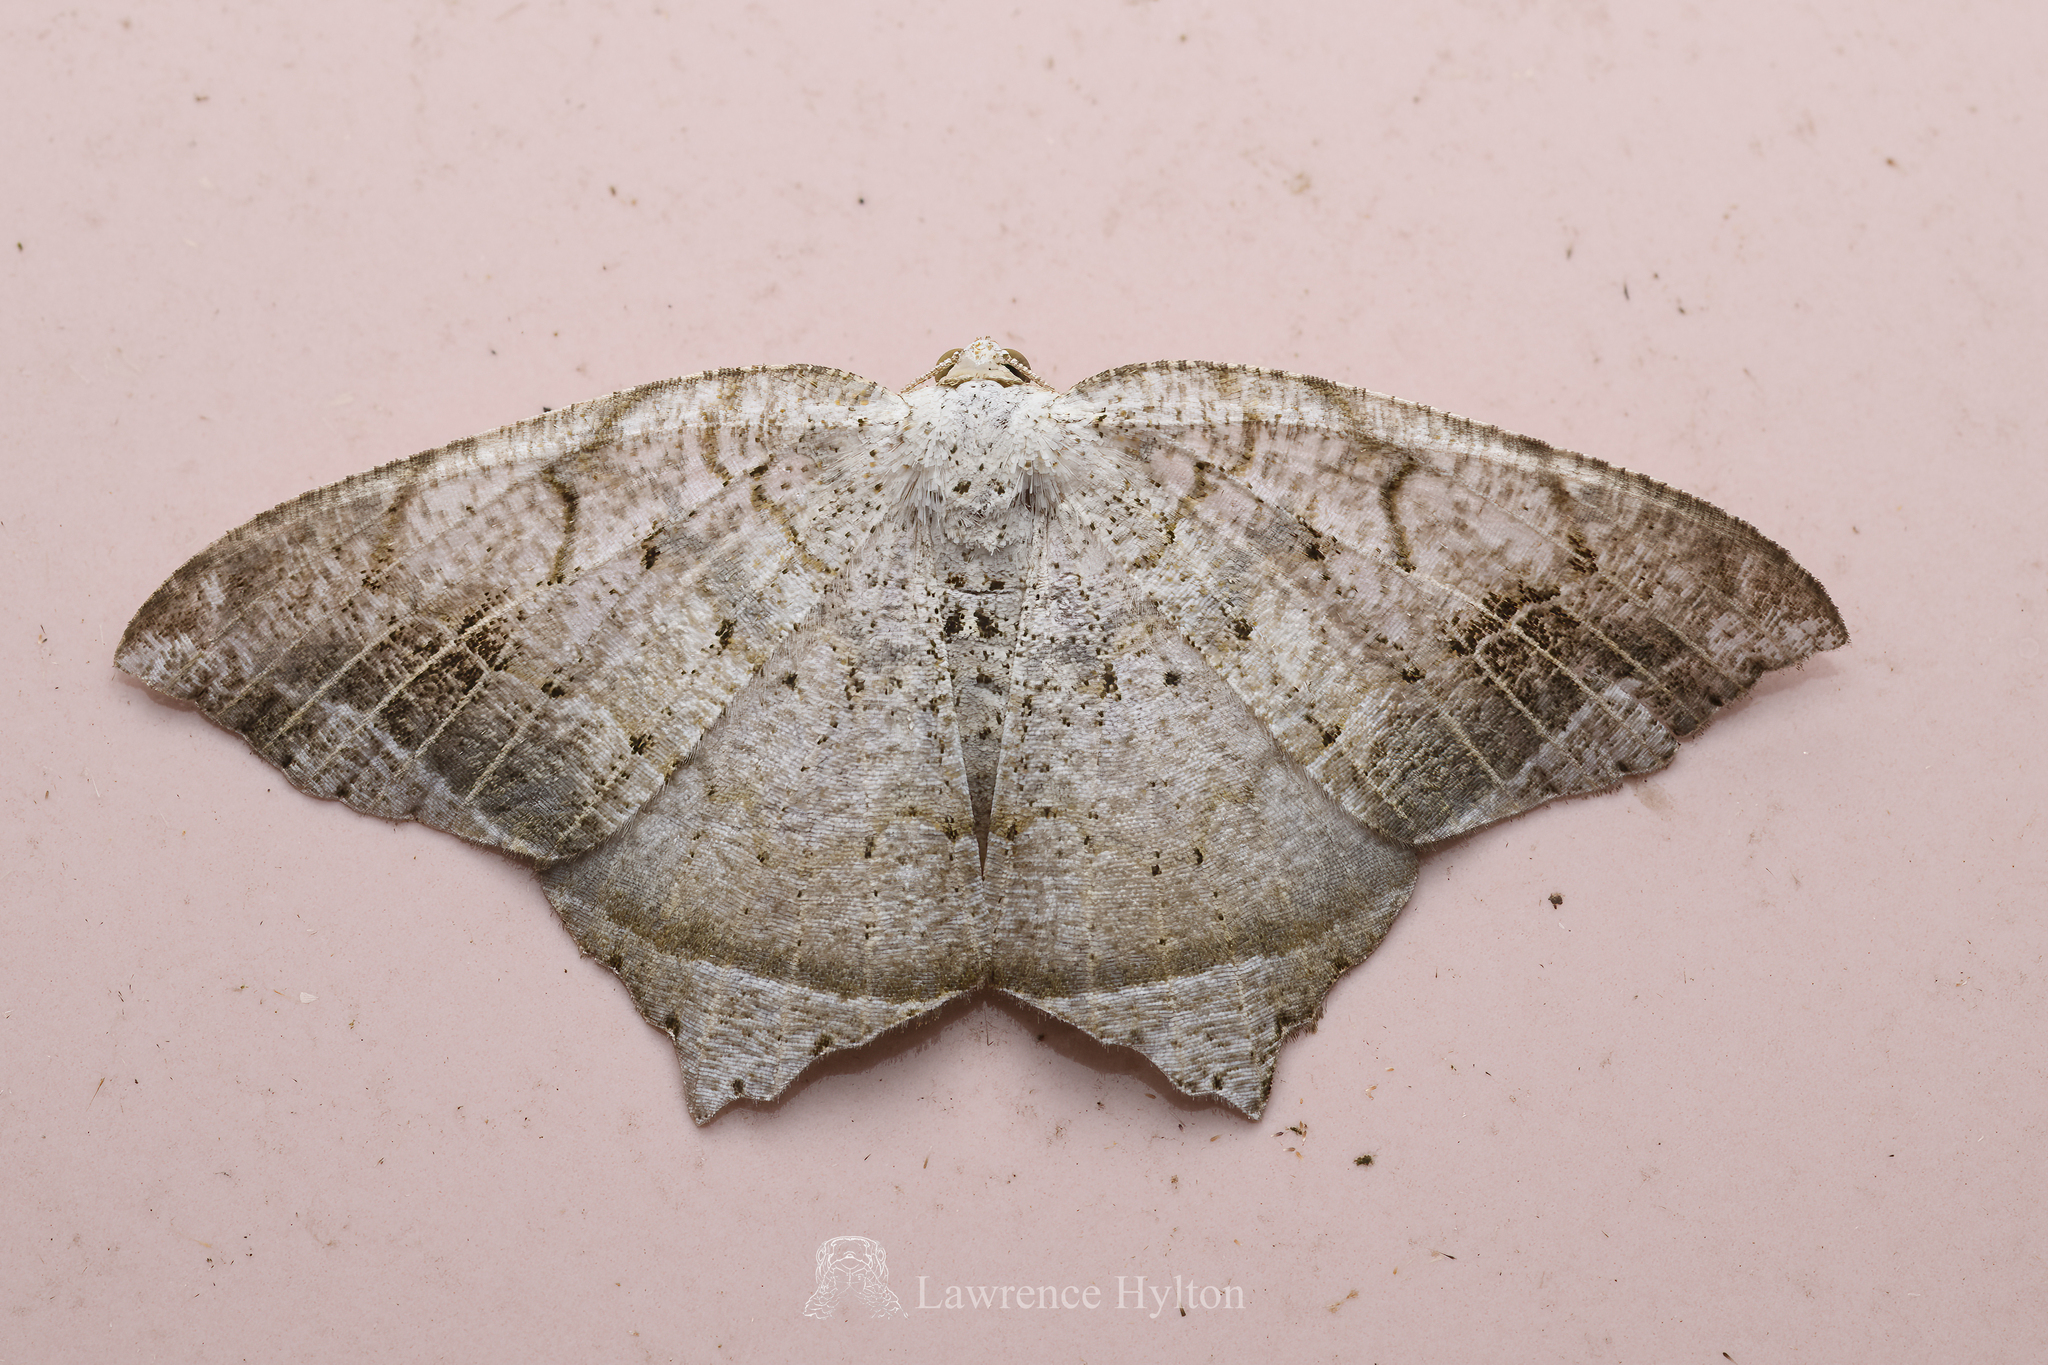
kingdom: Animalia
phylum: Arthropoda
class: Insecta
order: Lepidoptera
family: Geometridae
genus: Oxymacaria
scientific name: Oxymacaria temeraria
